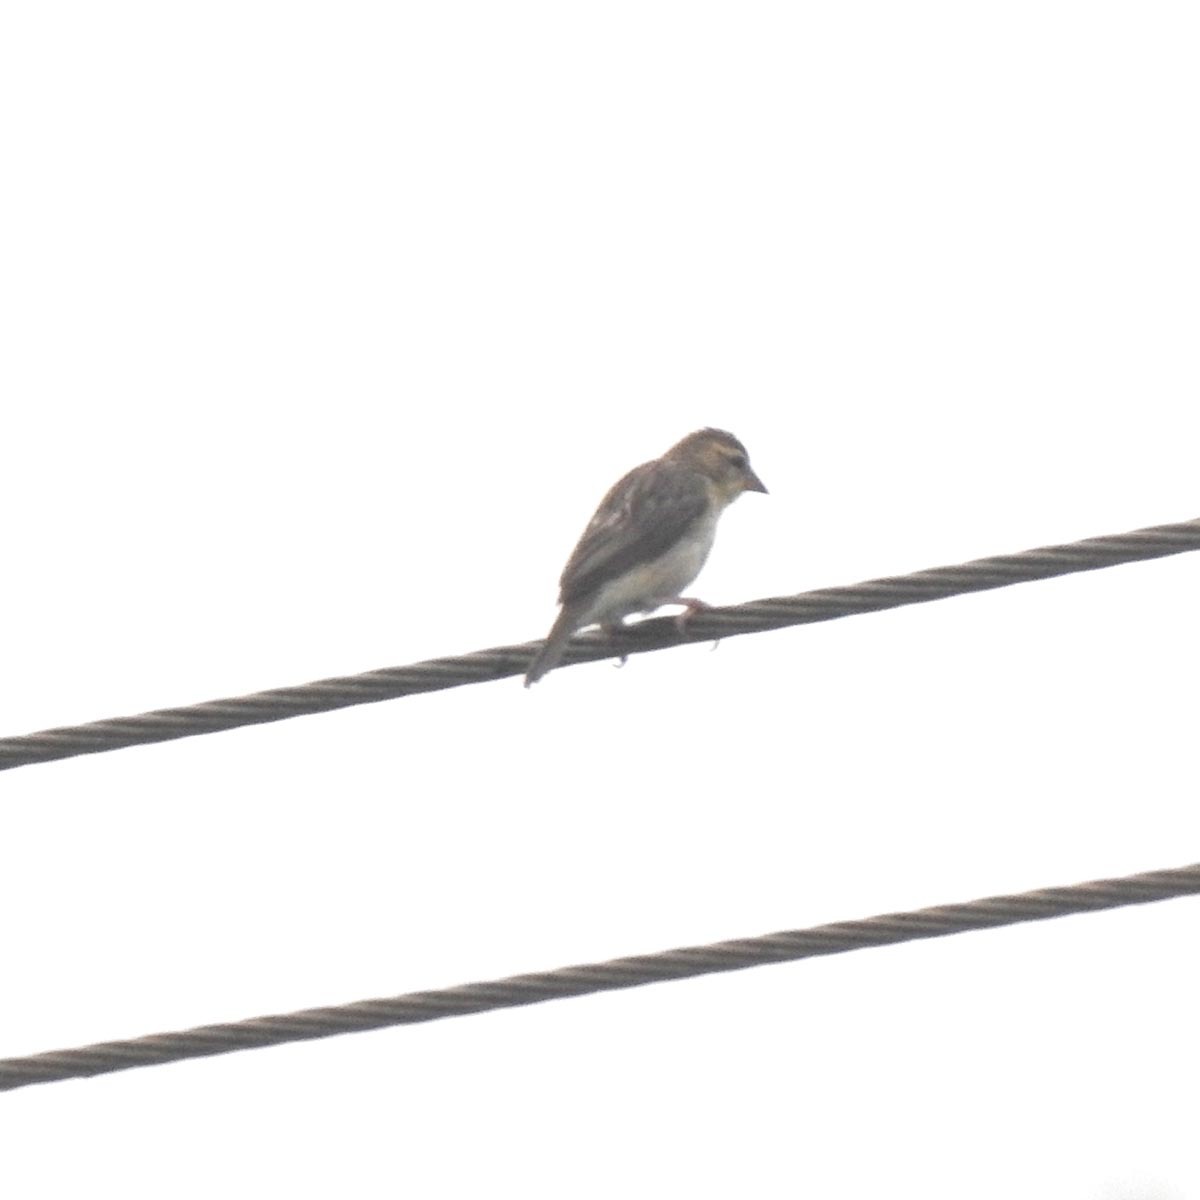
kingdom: Animalia
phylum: Chordata
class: Aves
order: Passeriformes
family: Ploceidae
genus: Ploceus
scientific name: Ploceus philippinus
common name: Baya weaver
